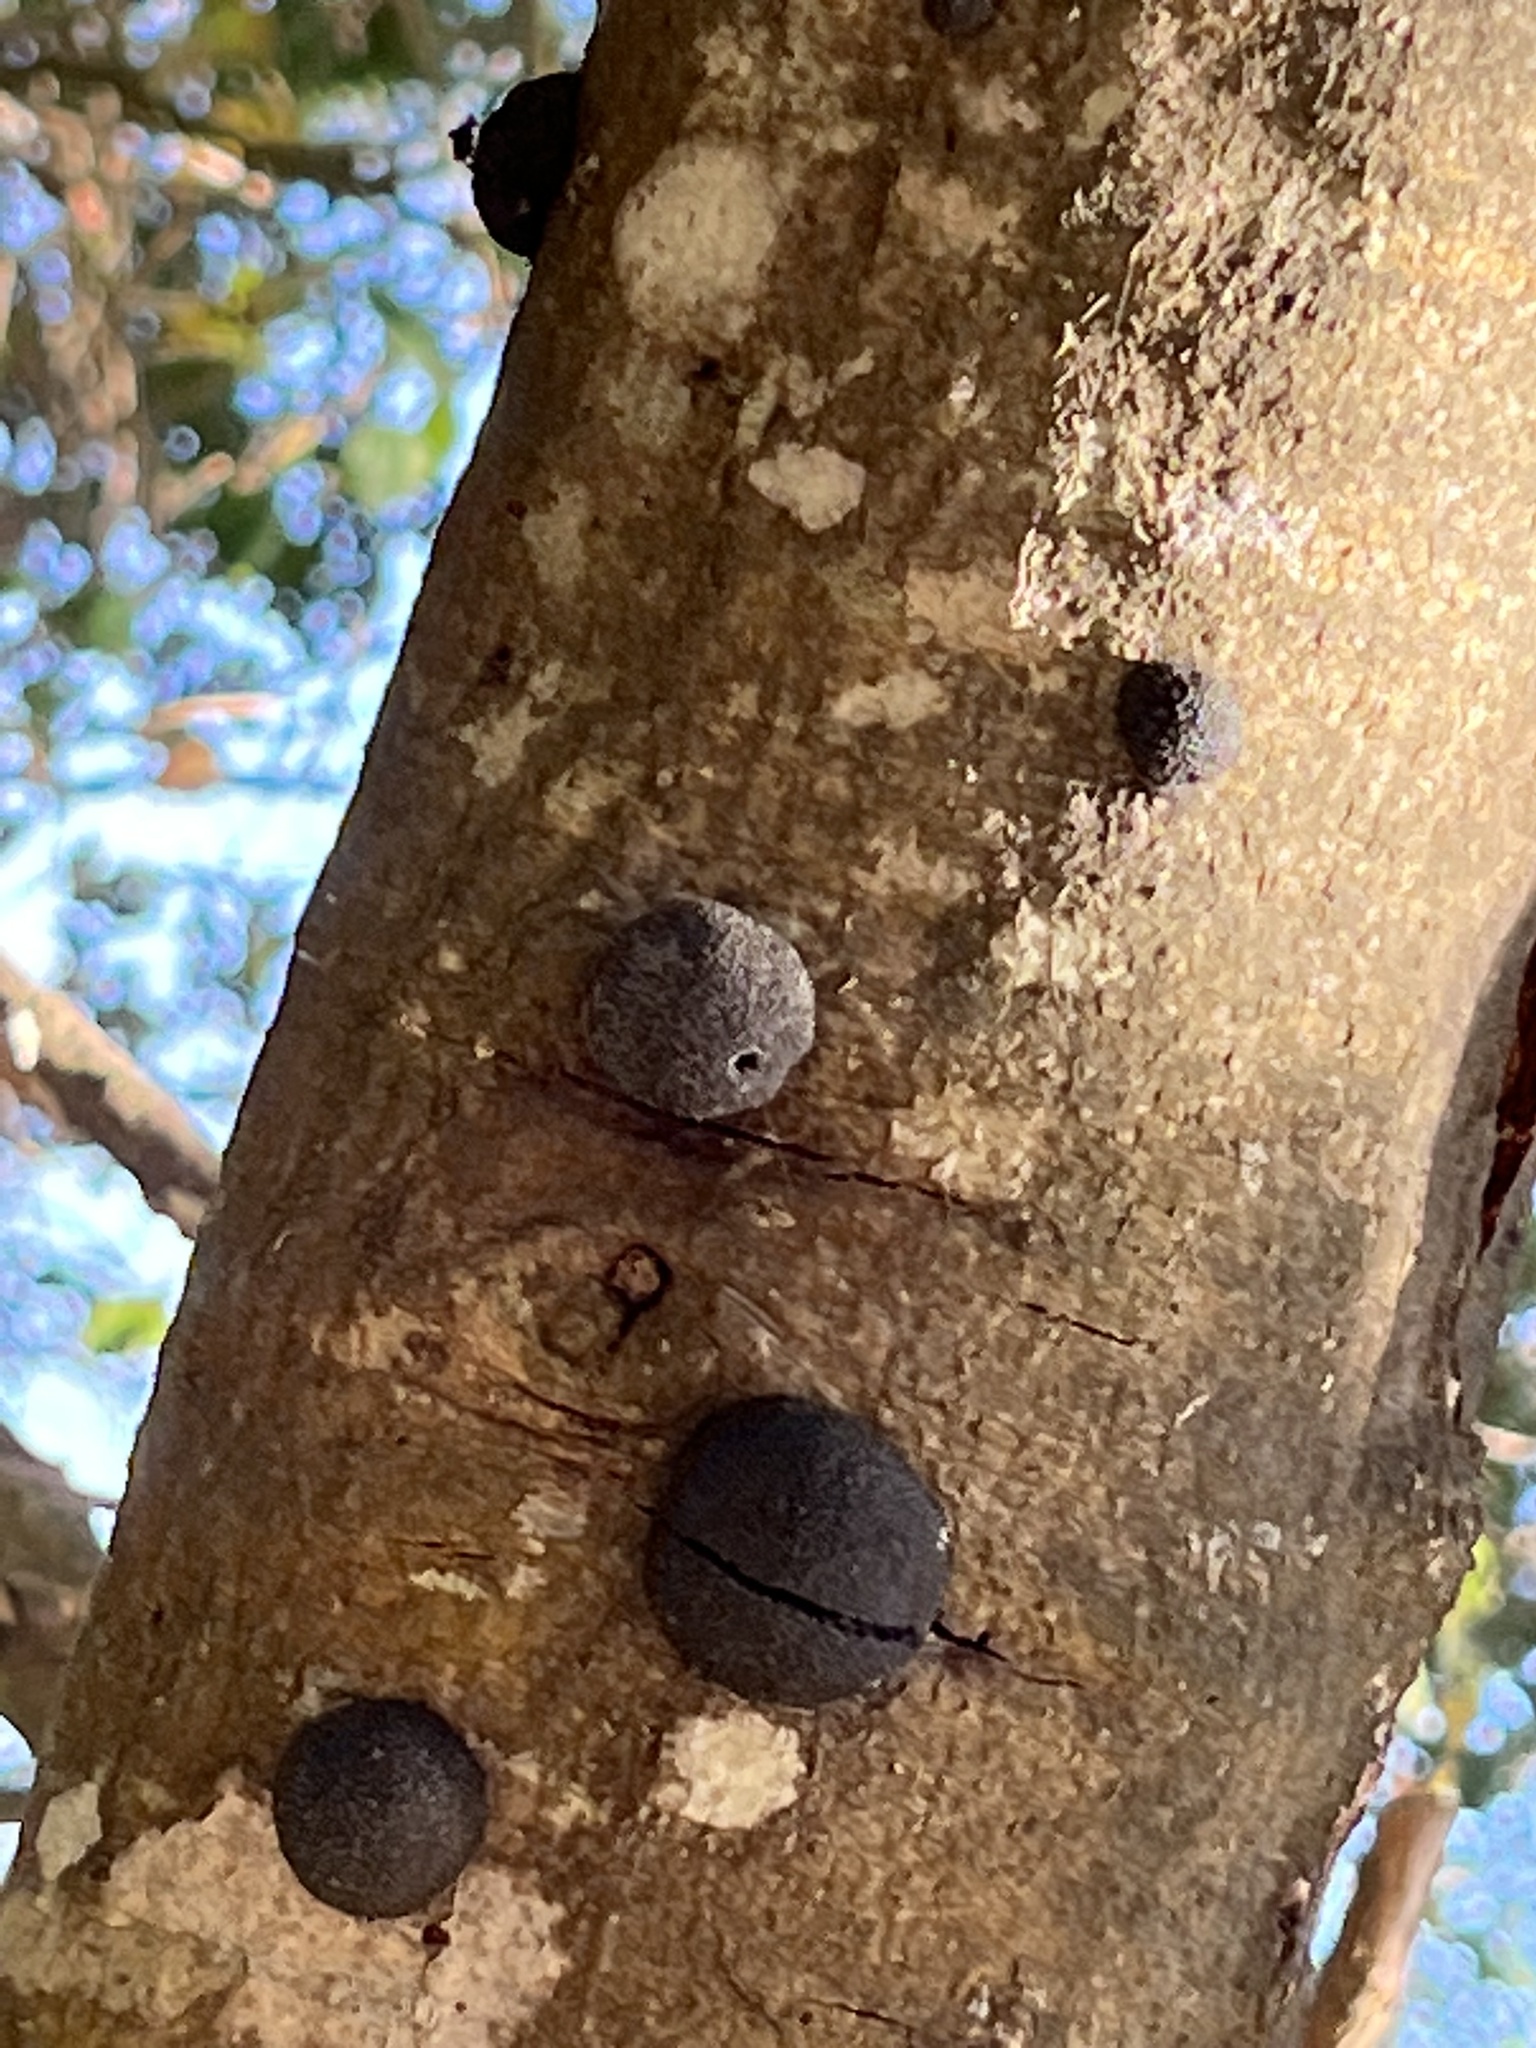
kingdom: Fungi
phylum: Ascomycota
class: Sordariomycetes
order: Xylariales
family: Hypoxylaceae
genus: Annulohypoxylon
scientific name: Annulohypoxylon thouarsianum
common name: Cramp balls
